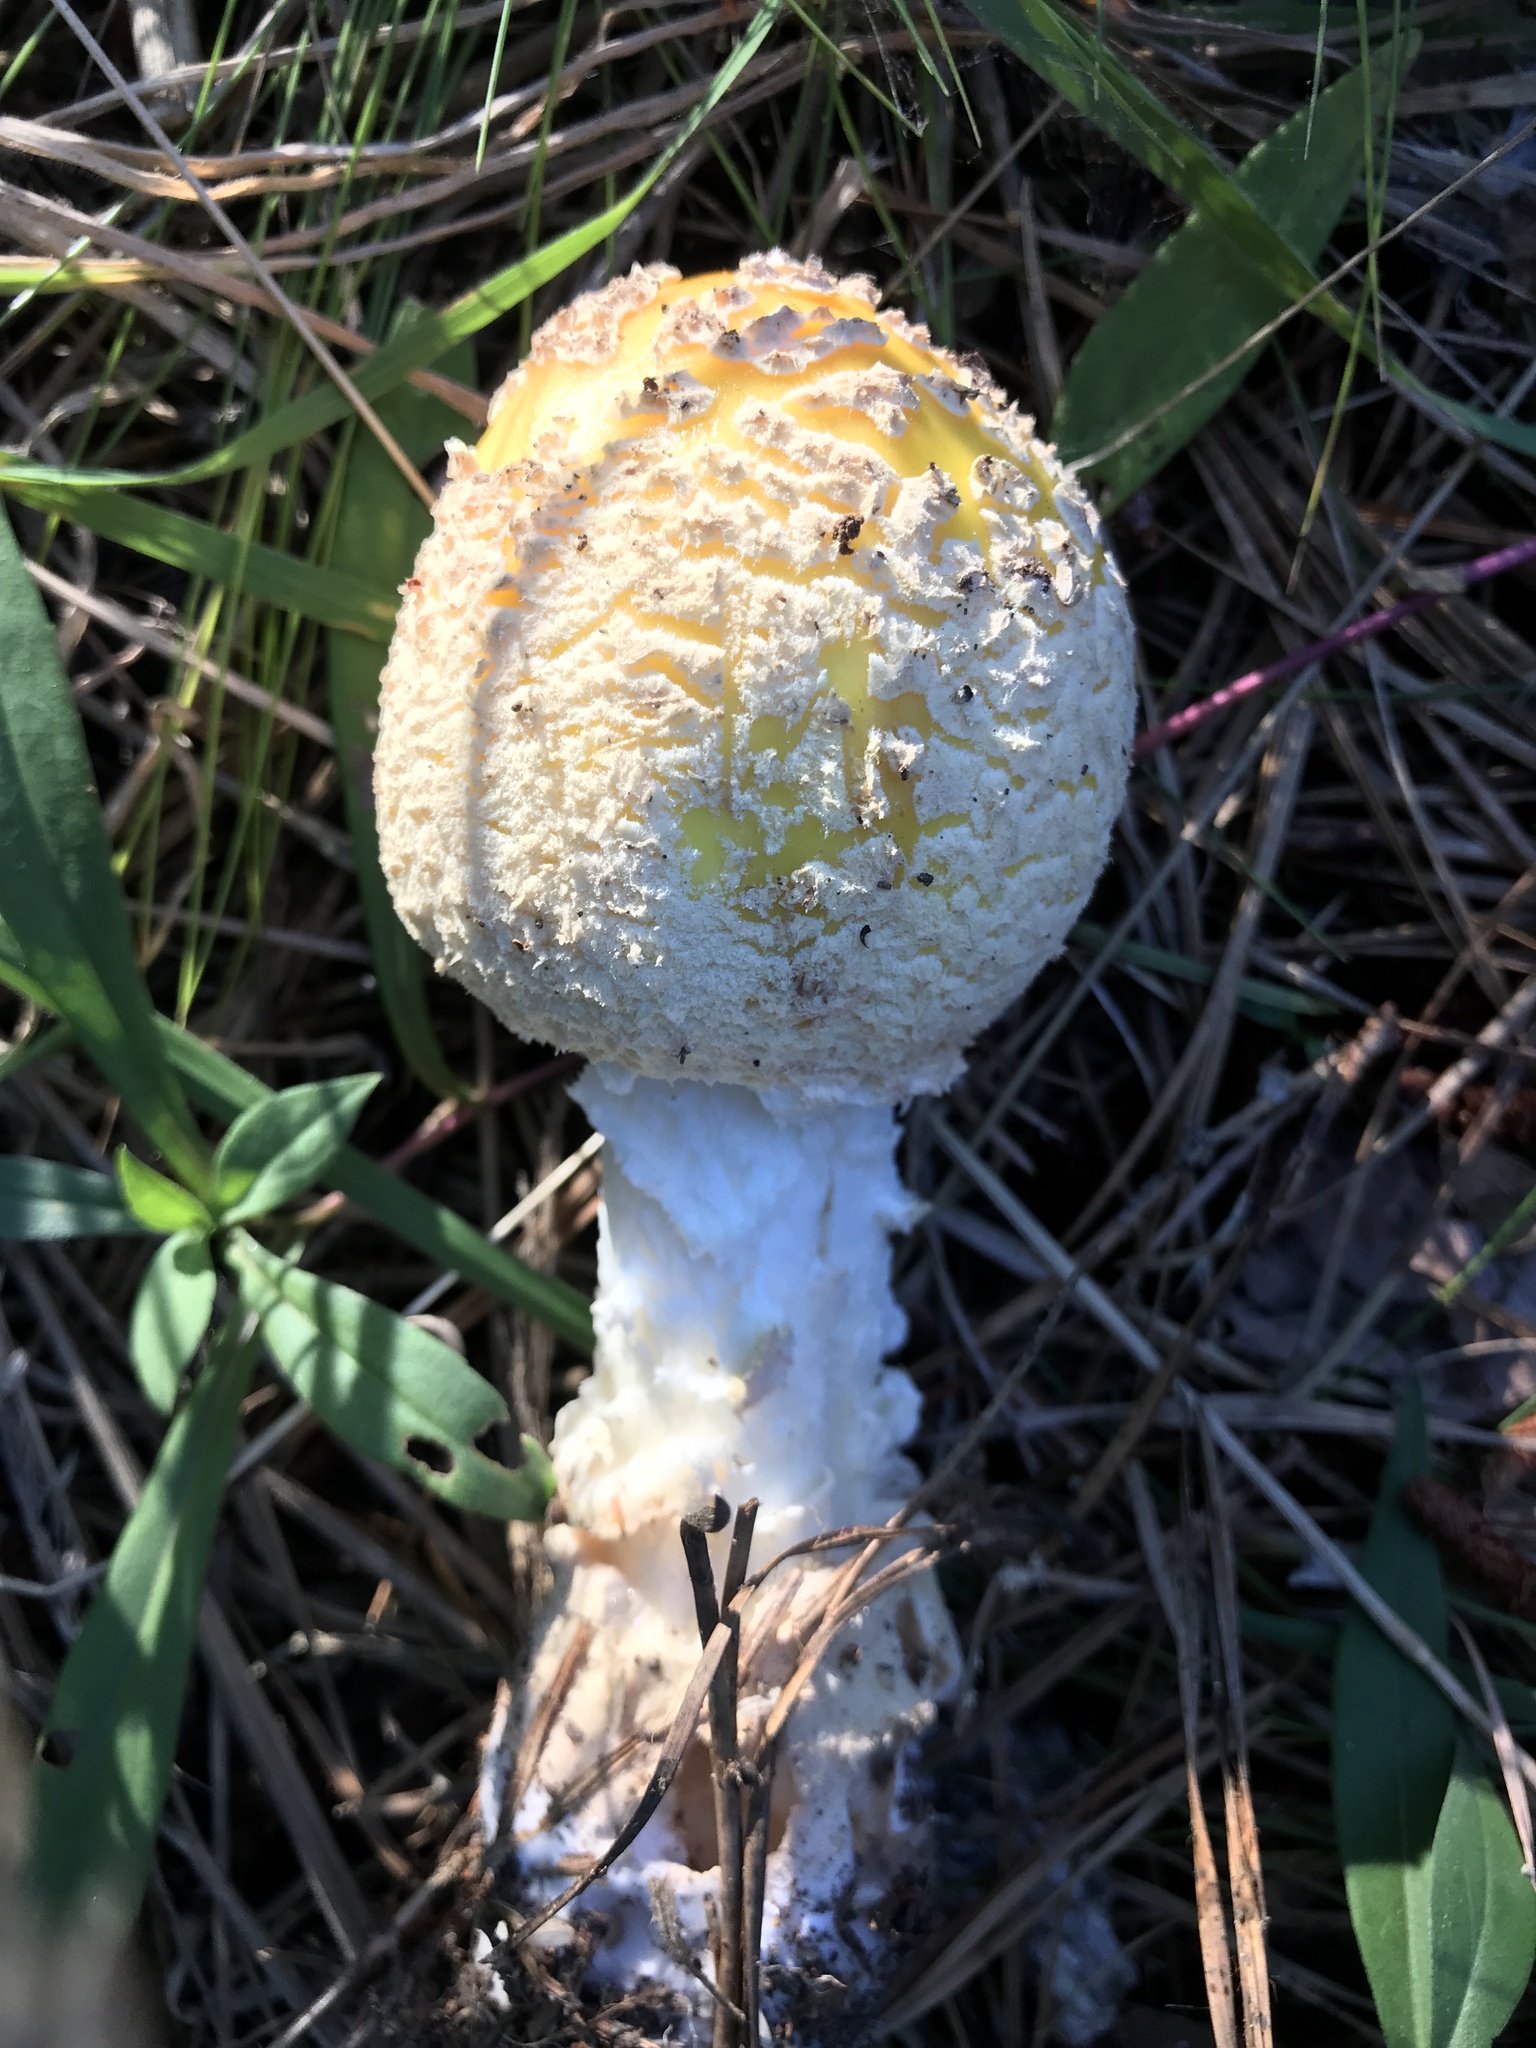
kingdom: Fungi
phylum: Basidiomycota
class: Agaricomycetes
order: Agaricales
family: Amanitaceae
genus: Amanita
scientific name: Amanita muscaria
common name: Fly agaric
